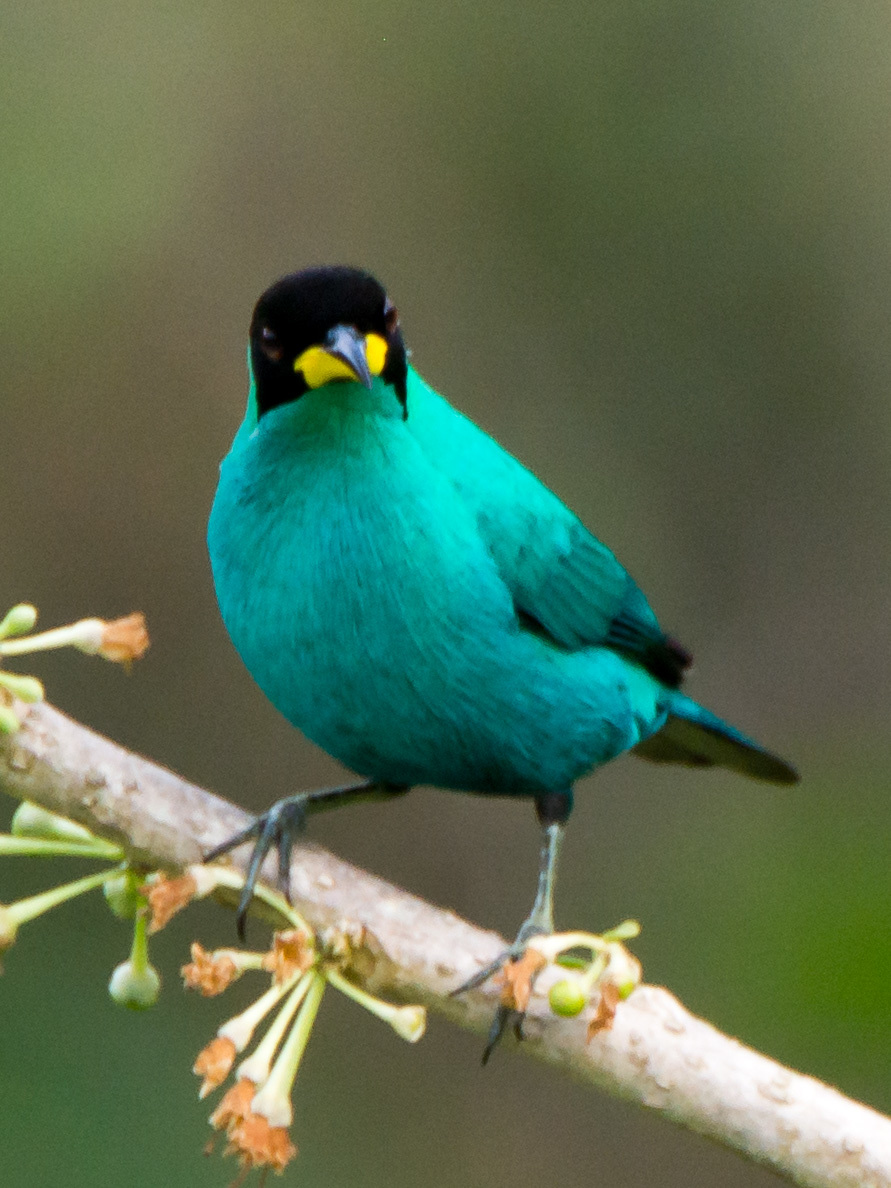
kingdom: Animalia
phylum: Chordata
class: Aves
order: Passeriformes
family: Thraupidae
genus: Chlorophanes
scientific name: Chlorophanes spiza
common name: Green honeycreeper
